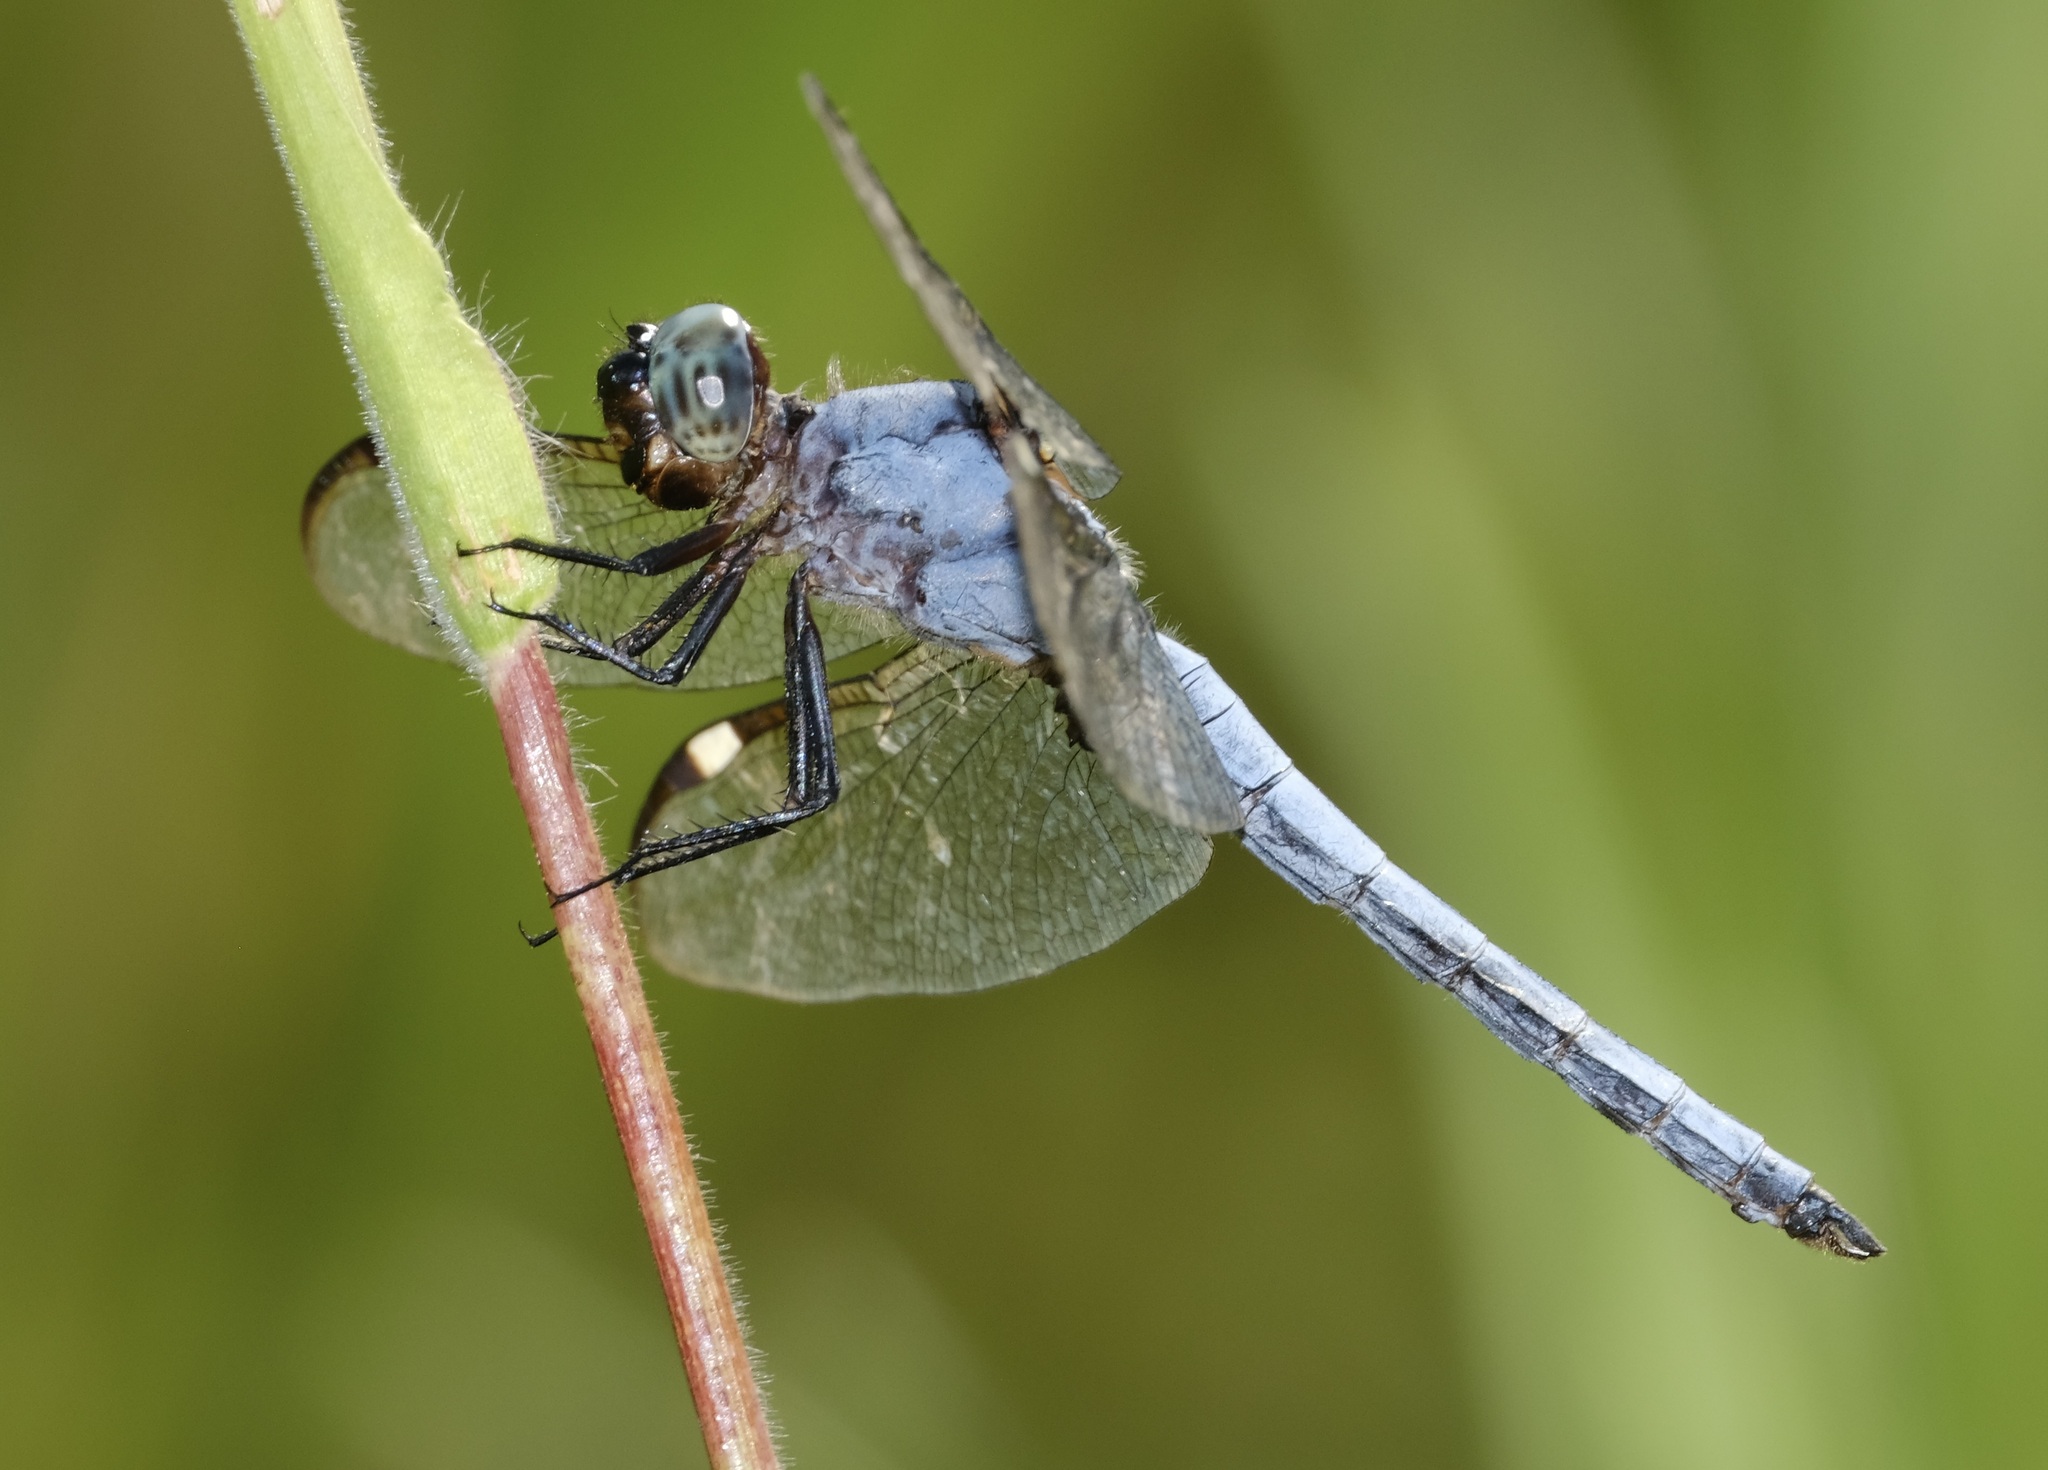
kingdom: Animalia
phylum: Arthropoda
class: Insecta
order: Odonata
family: Libellulidae
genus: Libellula
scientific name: Libellula cyanea
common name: Spangled skimmer
